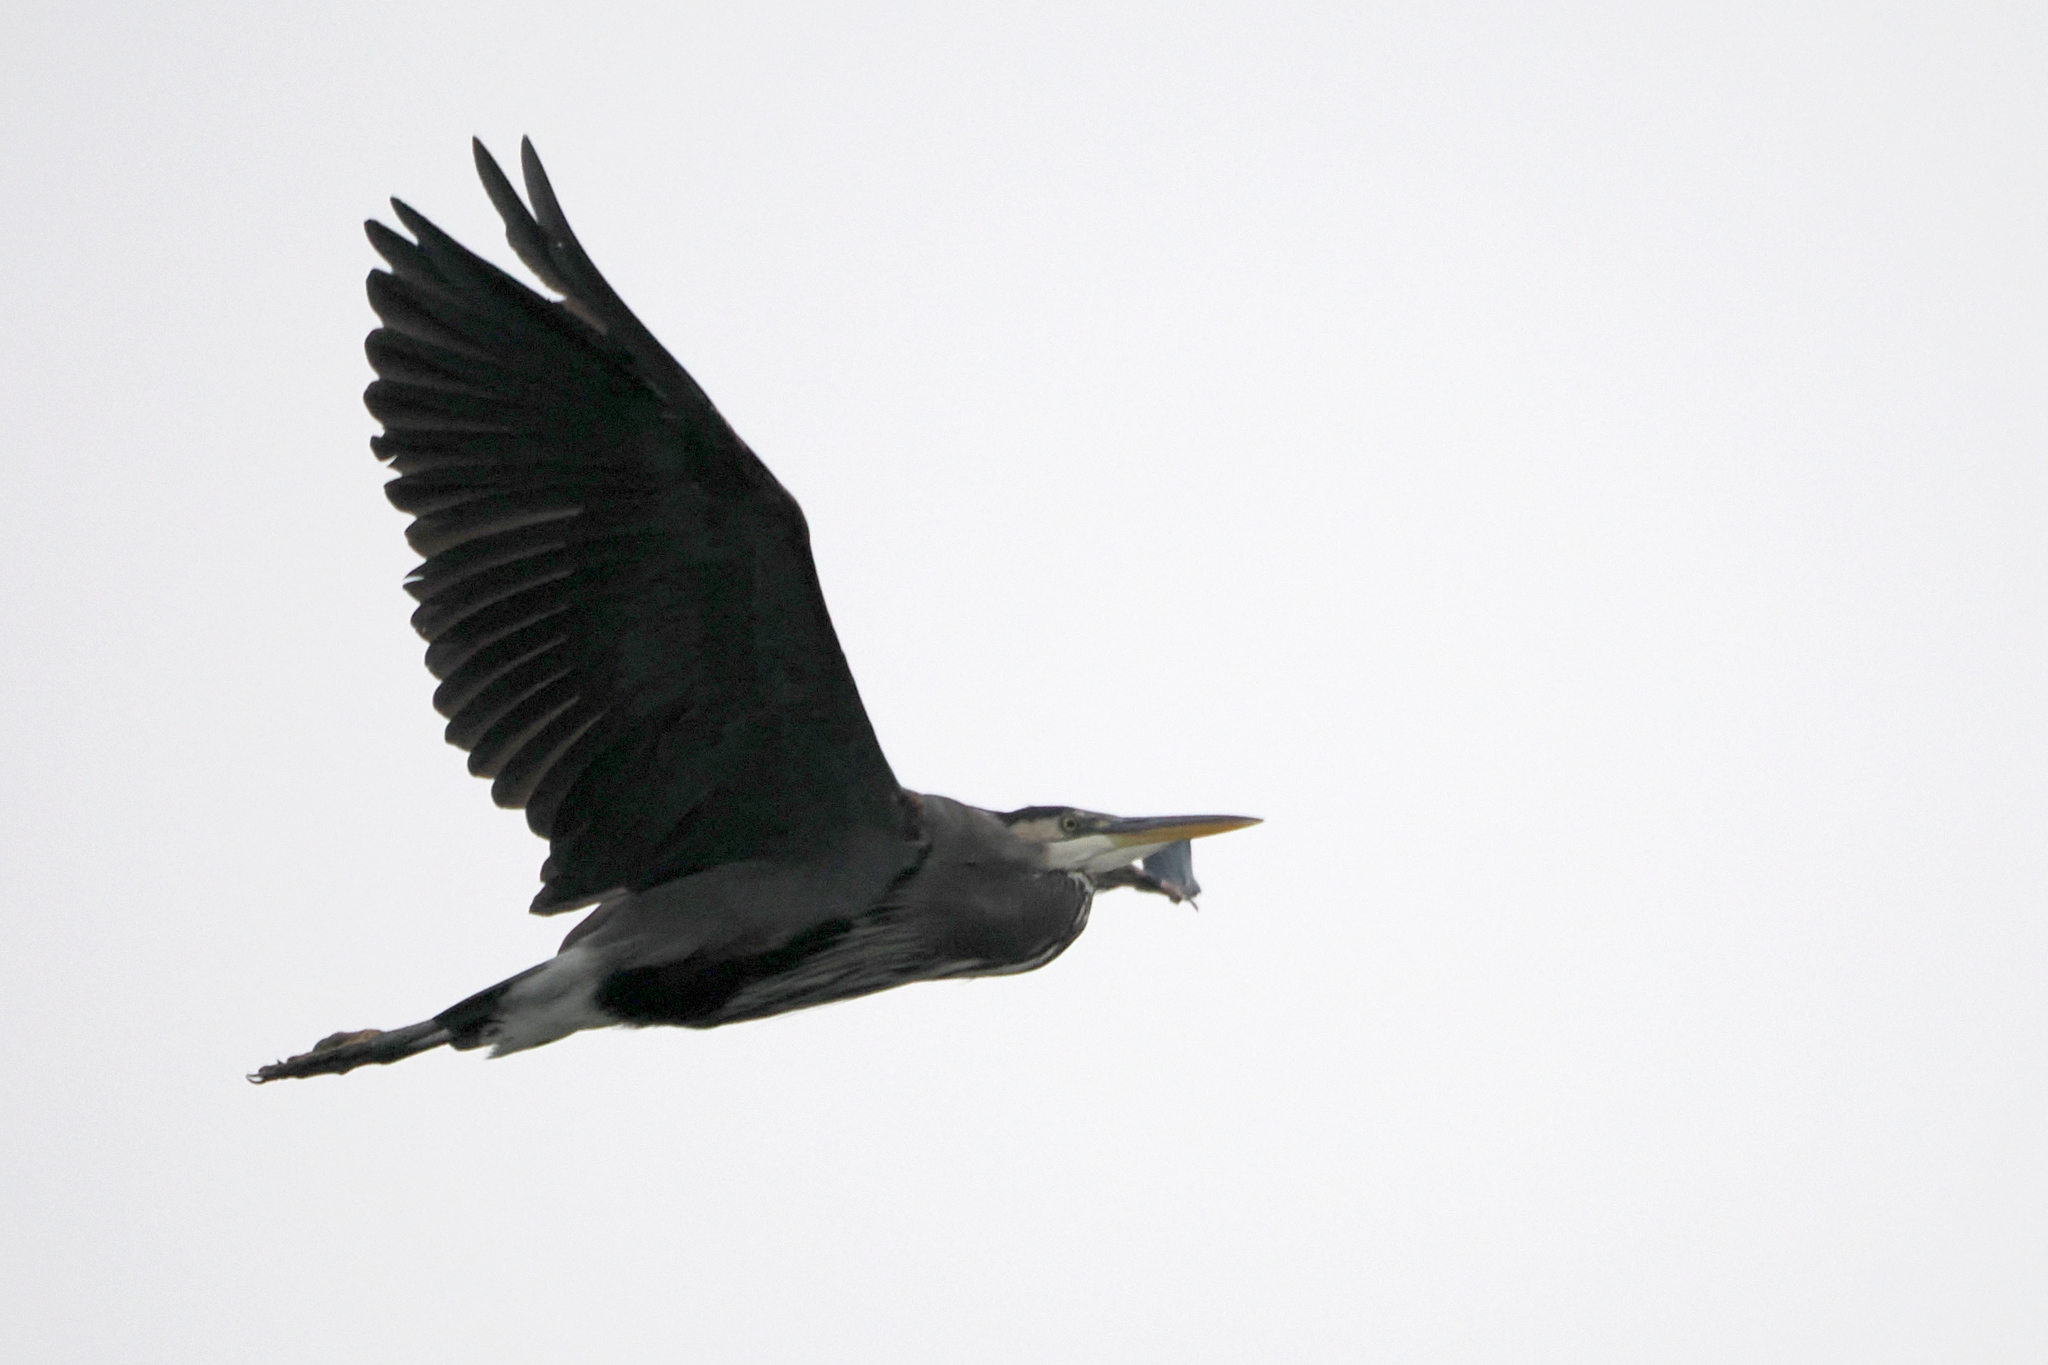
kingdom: Animalia
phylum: Chordata
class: Aves
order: Pelecaniformes
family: Ardeidae
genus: Ardea
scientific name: Ardea herodias
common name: Great blue heron
